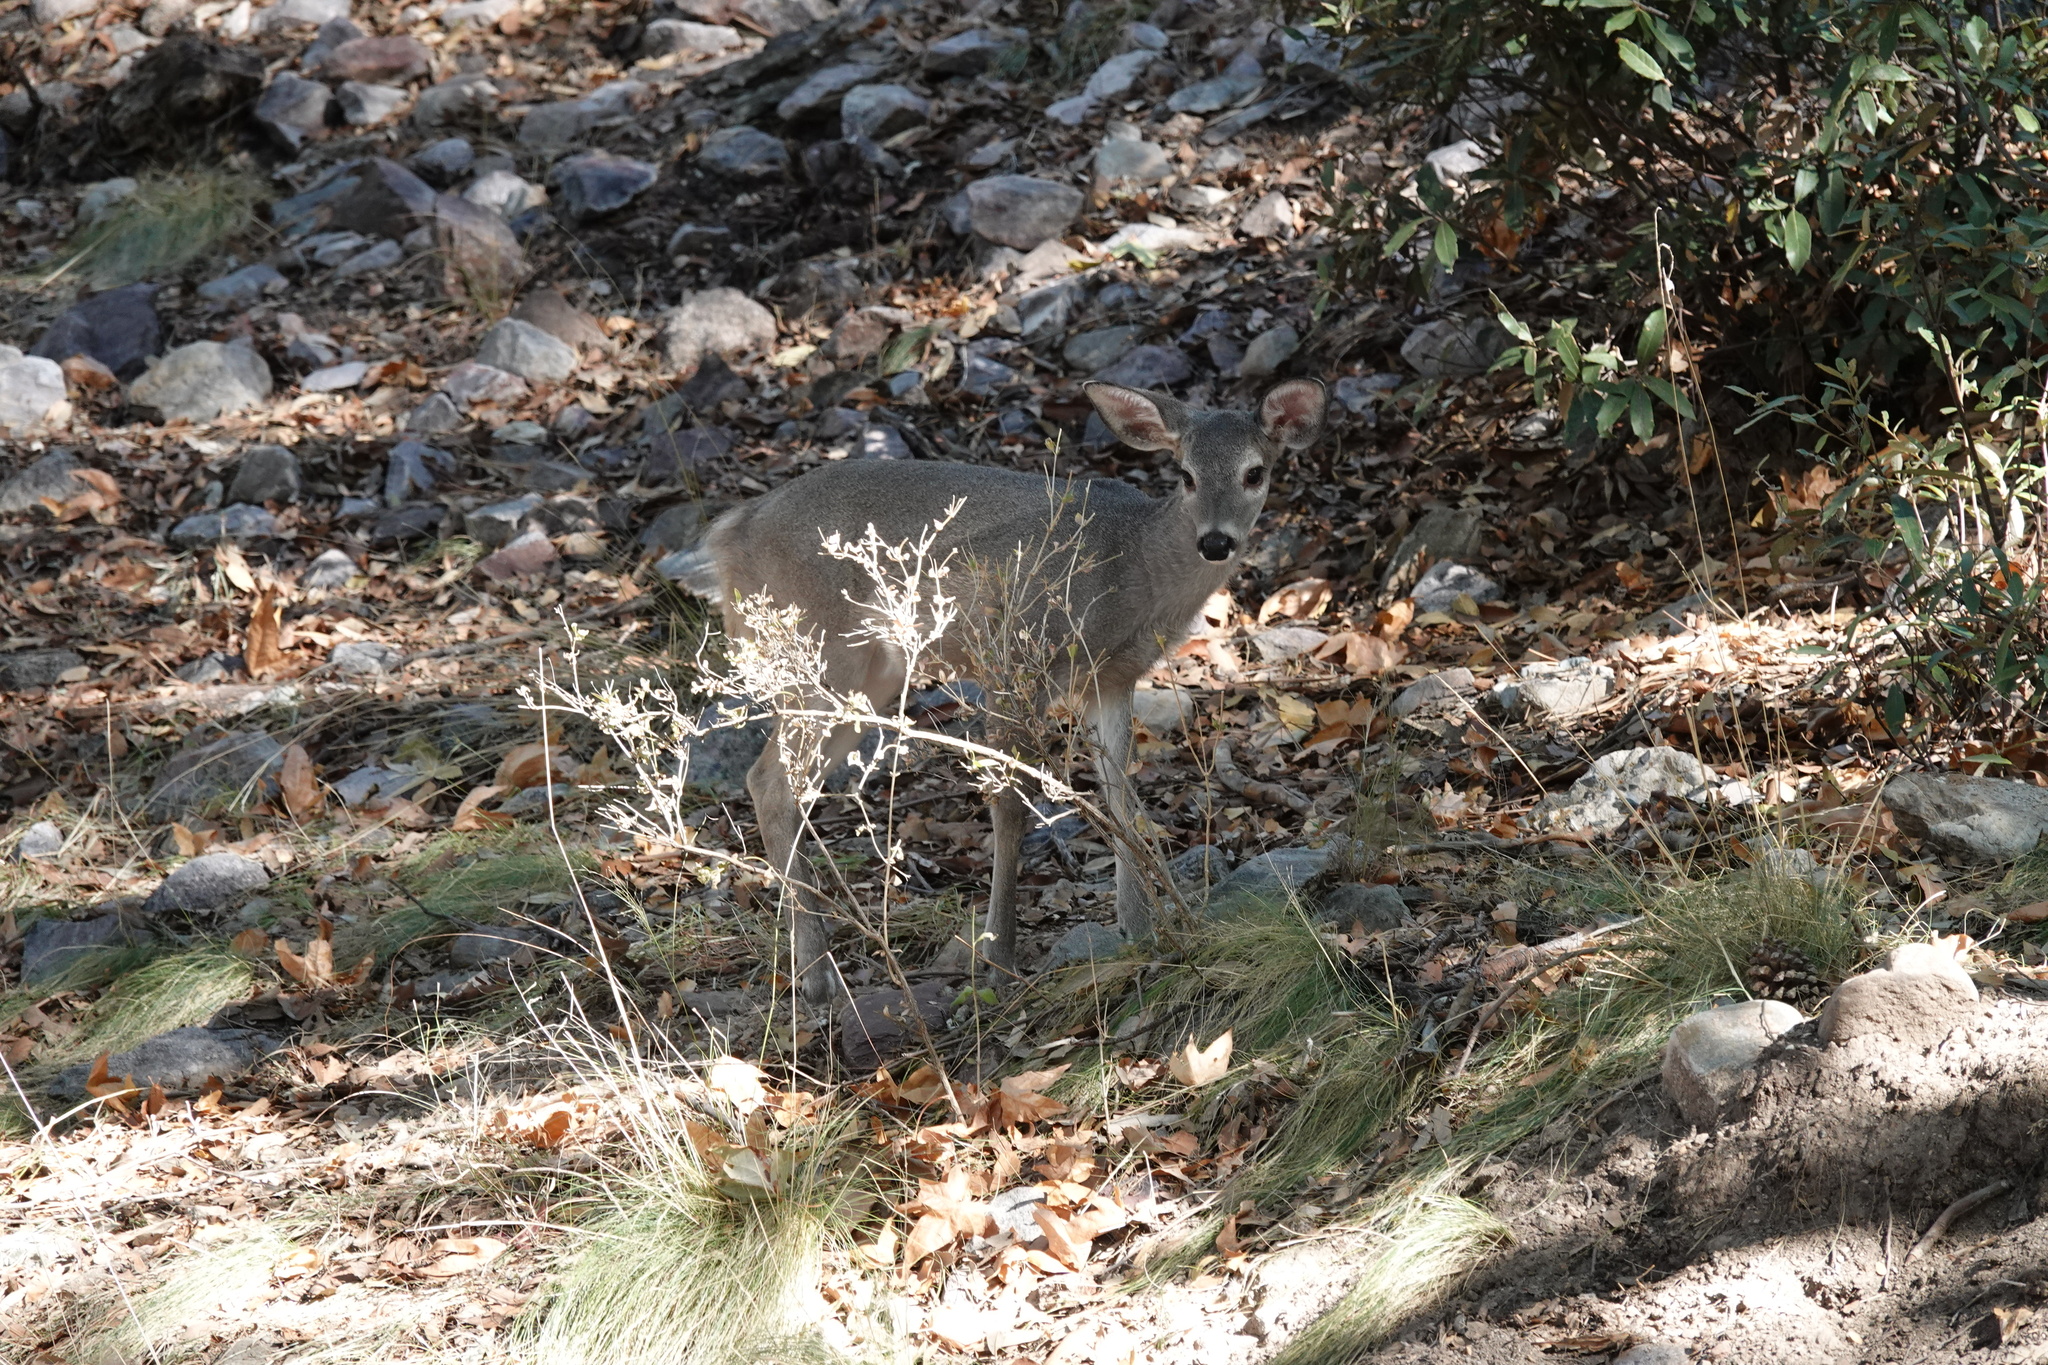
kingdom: Animalia
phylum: Chordata
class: Mammalia
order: Artiodactyla
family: Cervidae
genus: Odocoileus
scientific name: Odocoileus virginianus
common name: White-tailed deer
